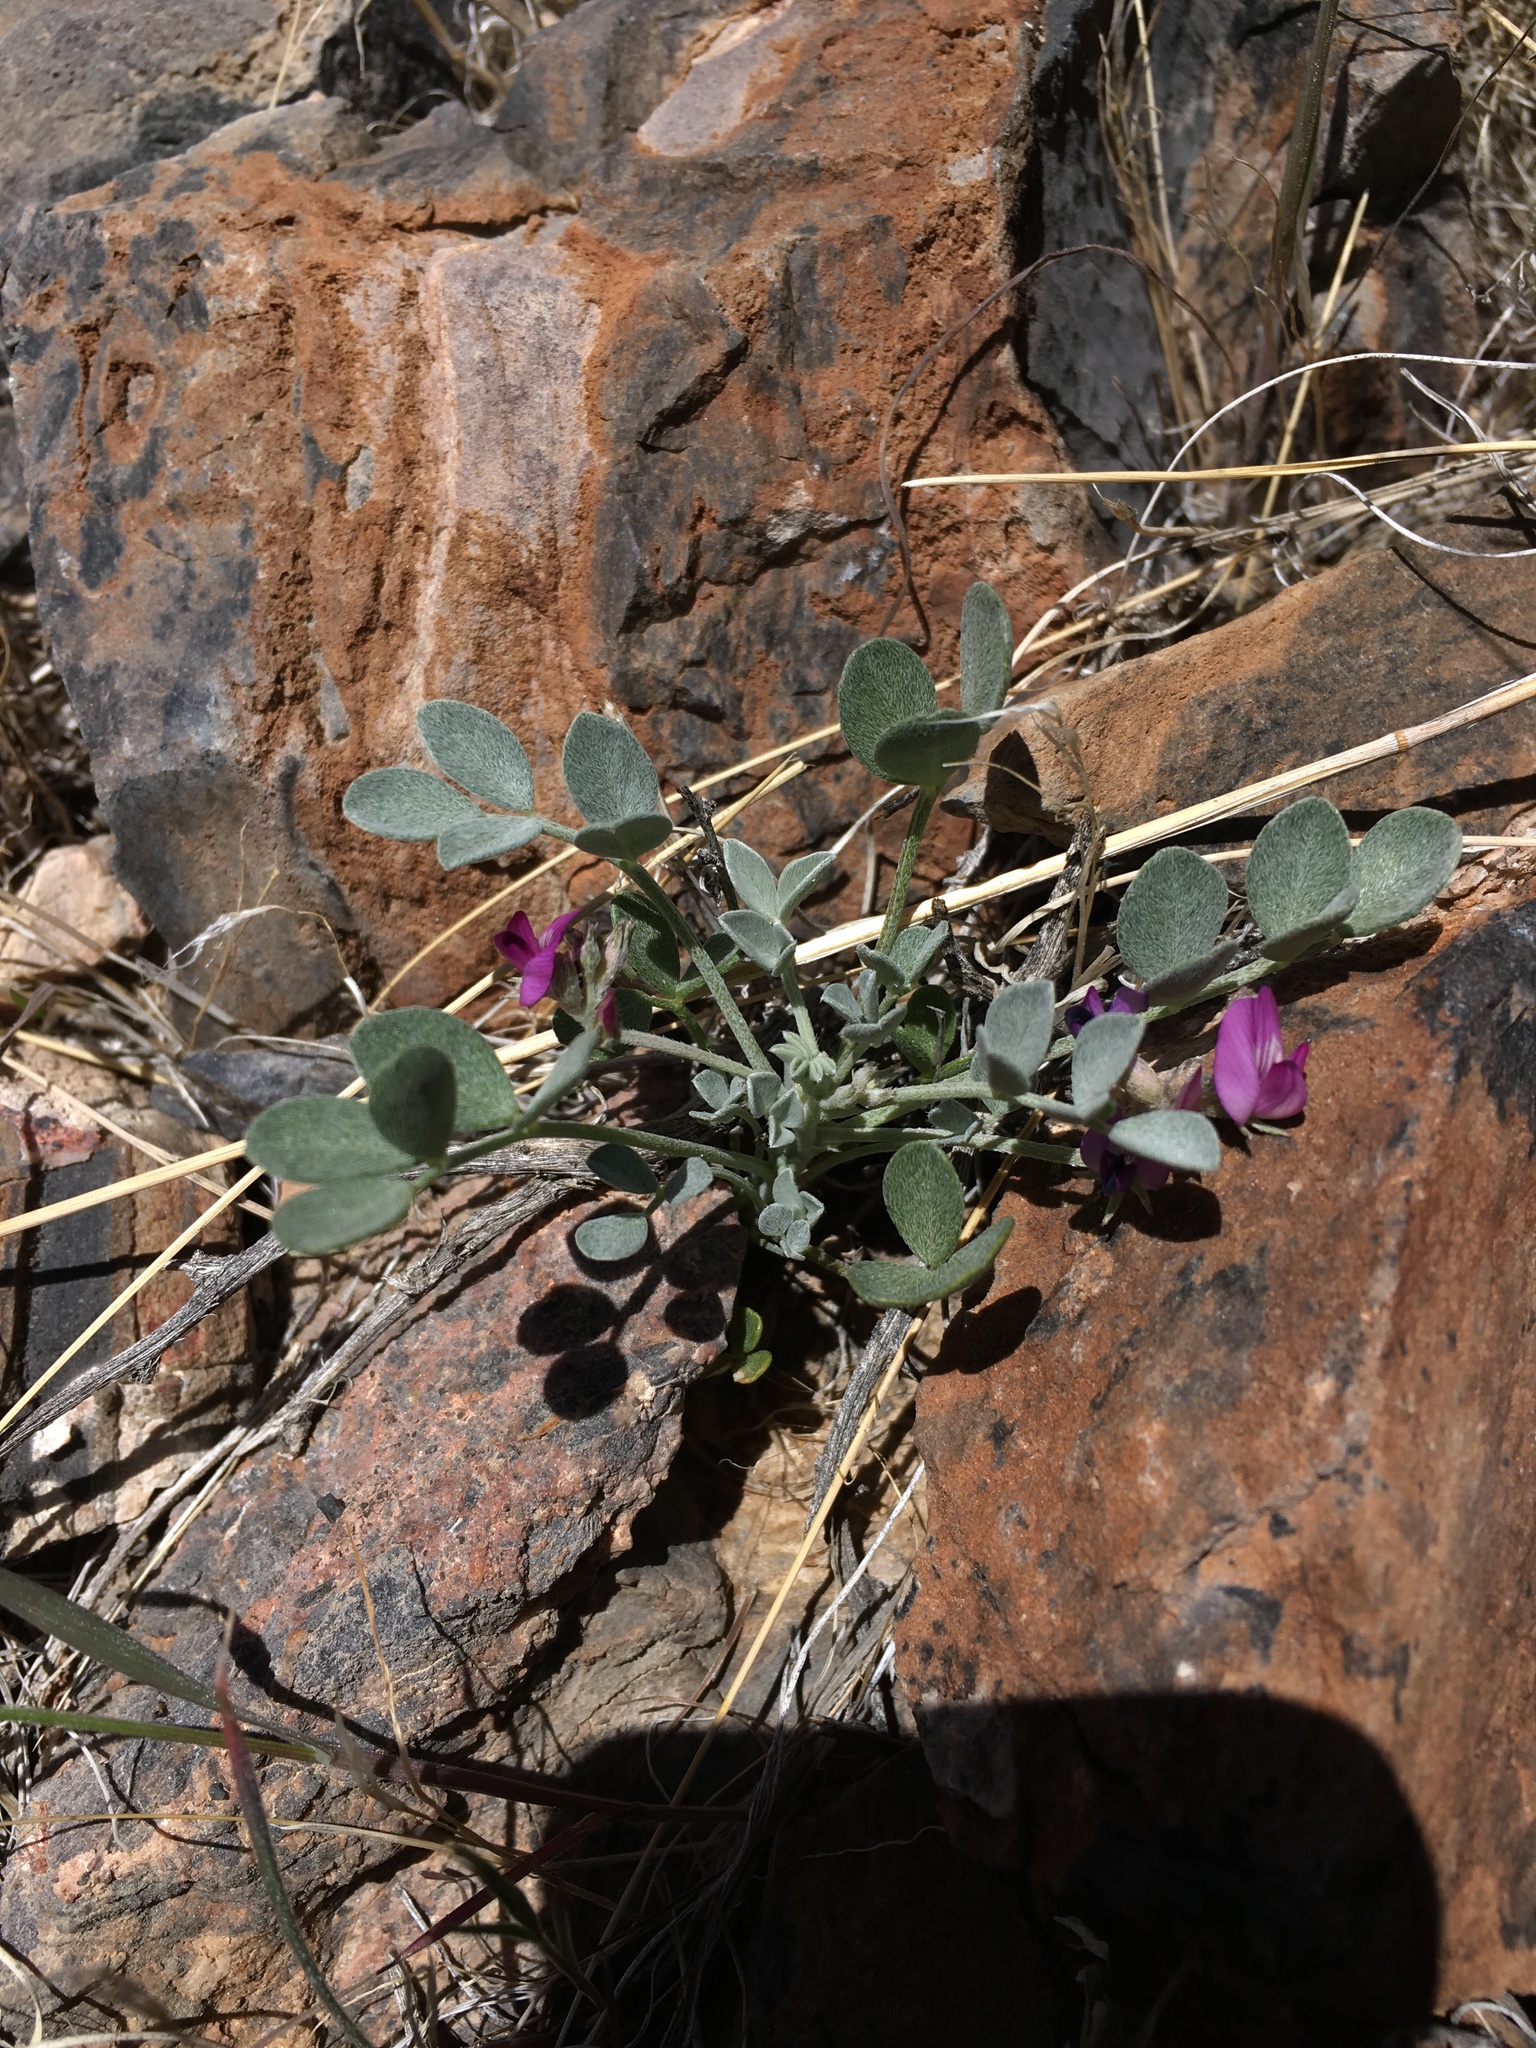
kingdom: Plantae
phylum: Tracheophyta
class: Magnoliopsida
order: Fabales
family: Fabaceae
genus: Astragalus
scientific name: Astragalus mohavensis
